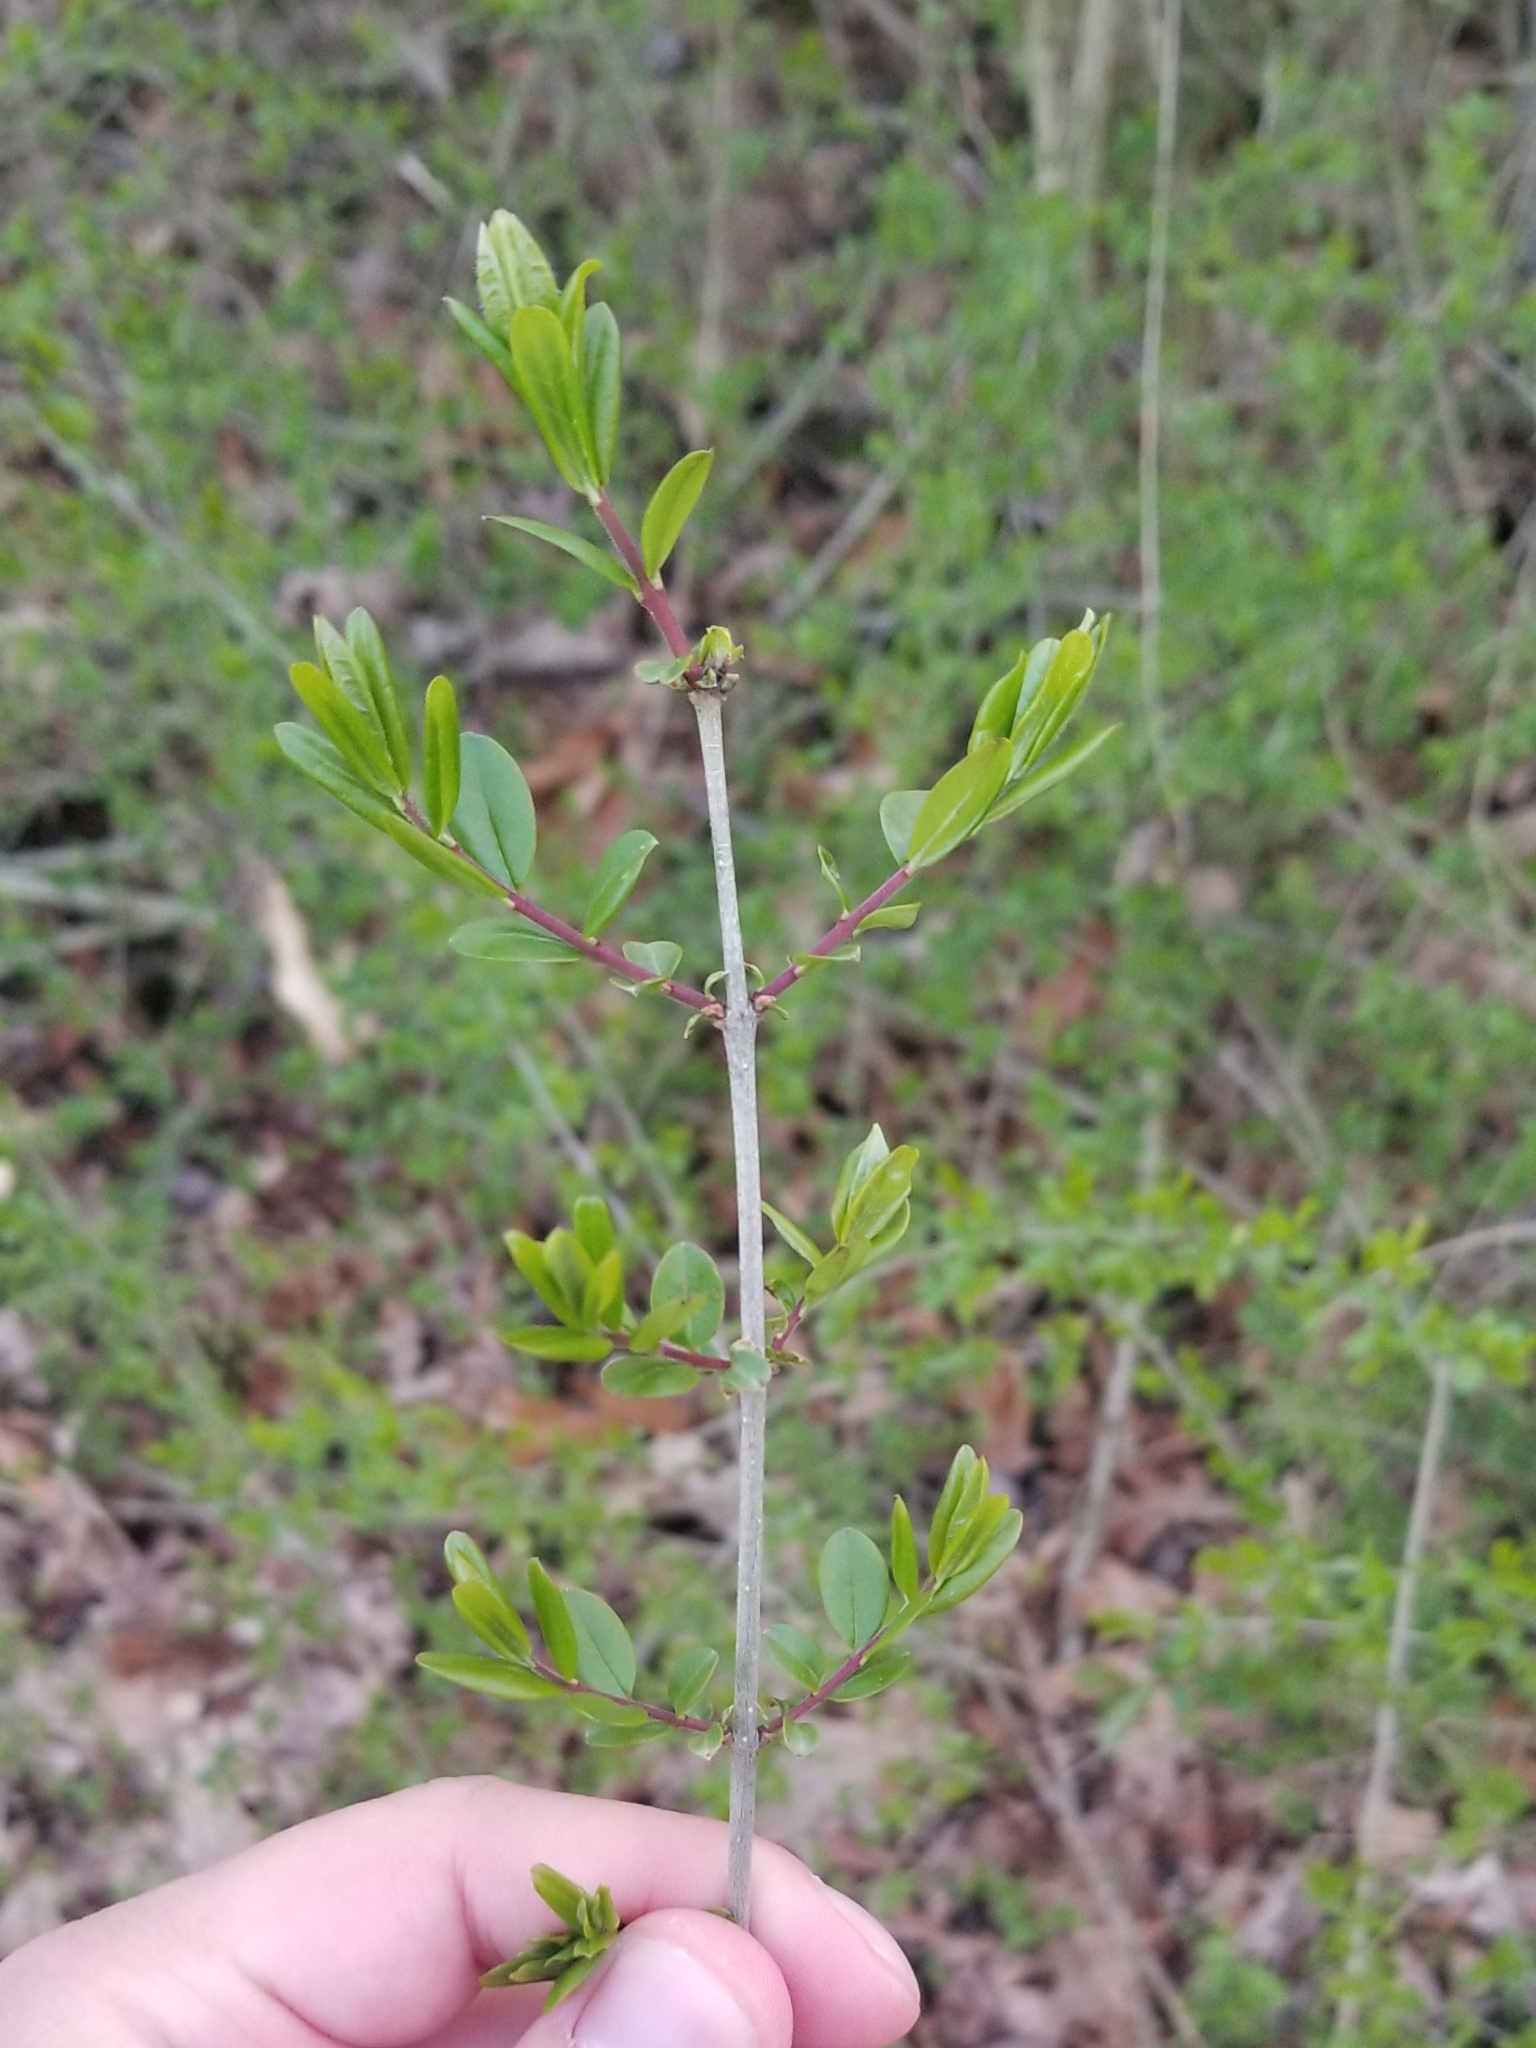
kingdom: Plantae
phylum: Tracheophyta
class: Magnoliopsida
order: Lamiales
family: Oleaceae
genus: Ligustrum
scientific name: Ligustrum
